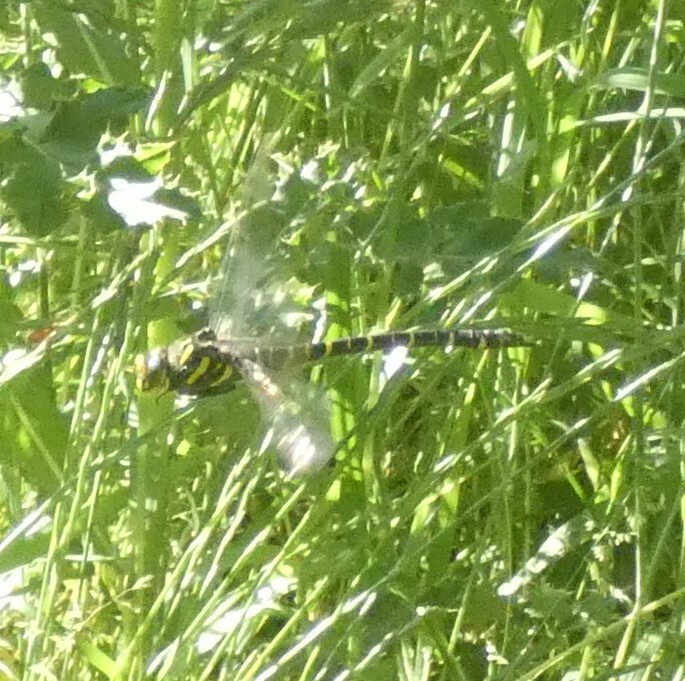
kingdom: Animalia
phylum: Arthropoda
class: Insecta
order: Odonata
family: Cordulegastridae
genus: Cordulegaster
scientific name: Cordulegaster boltonii
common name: Golden-ringed dragonfly
